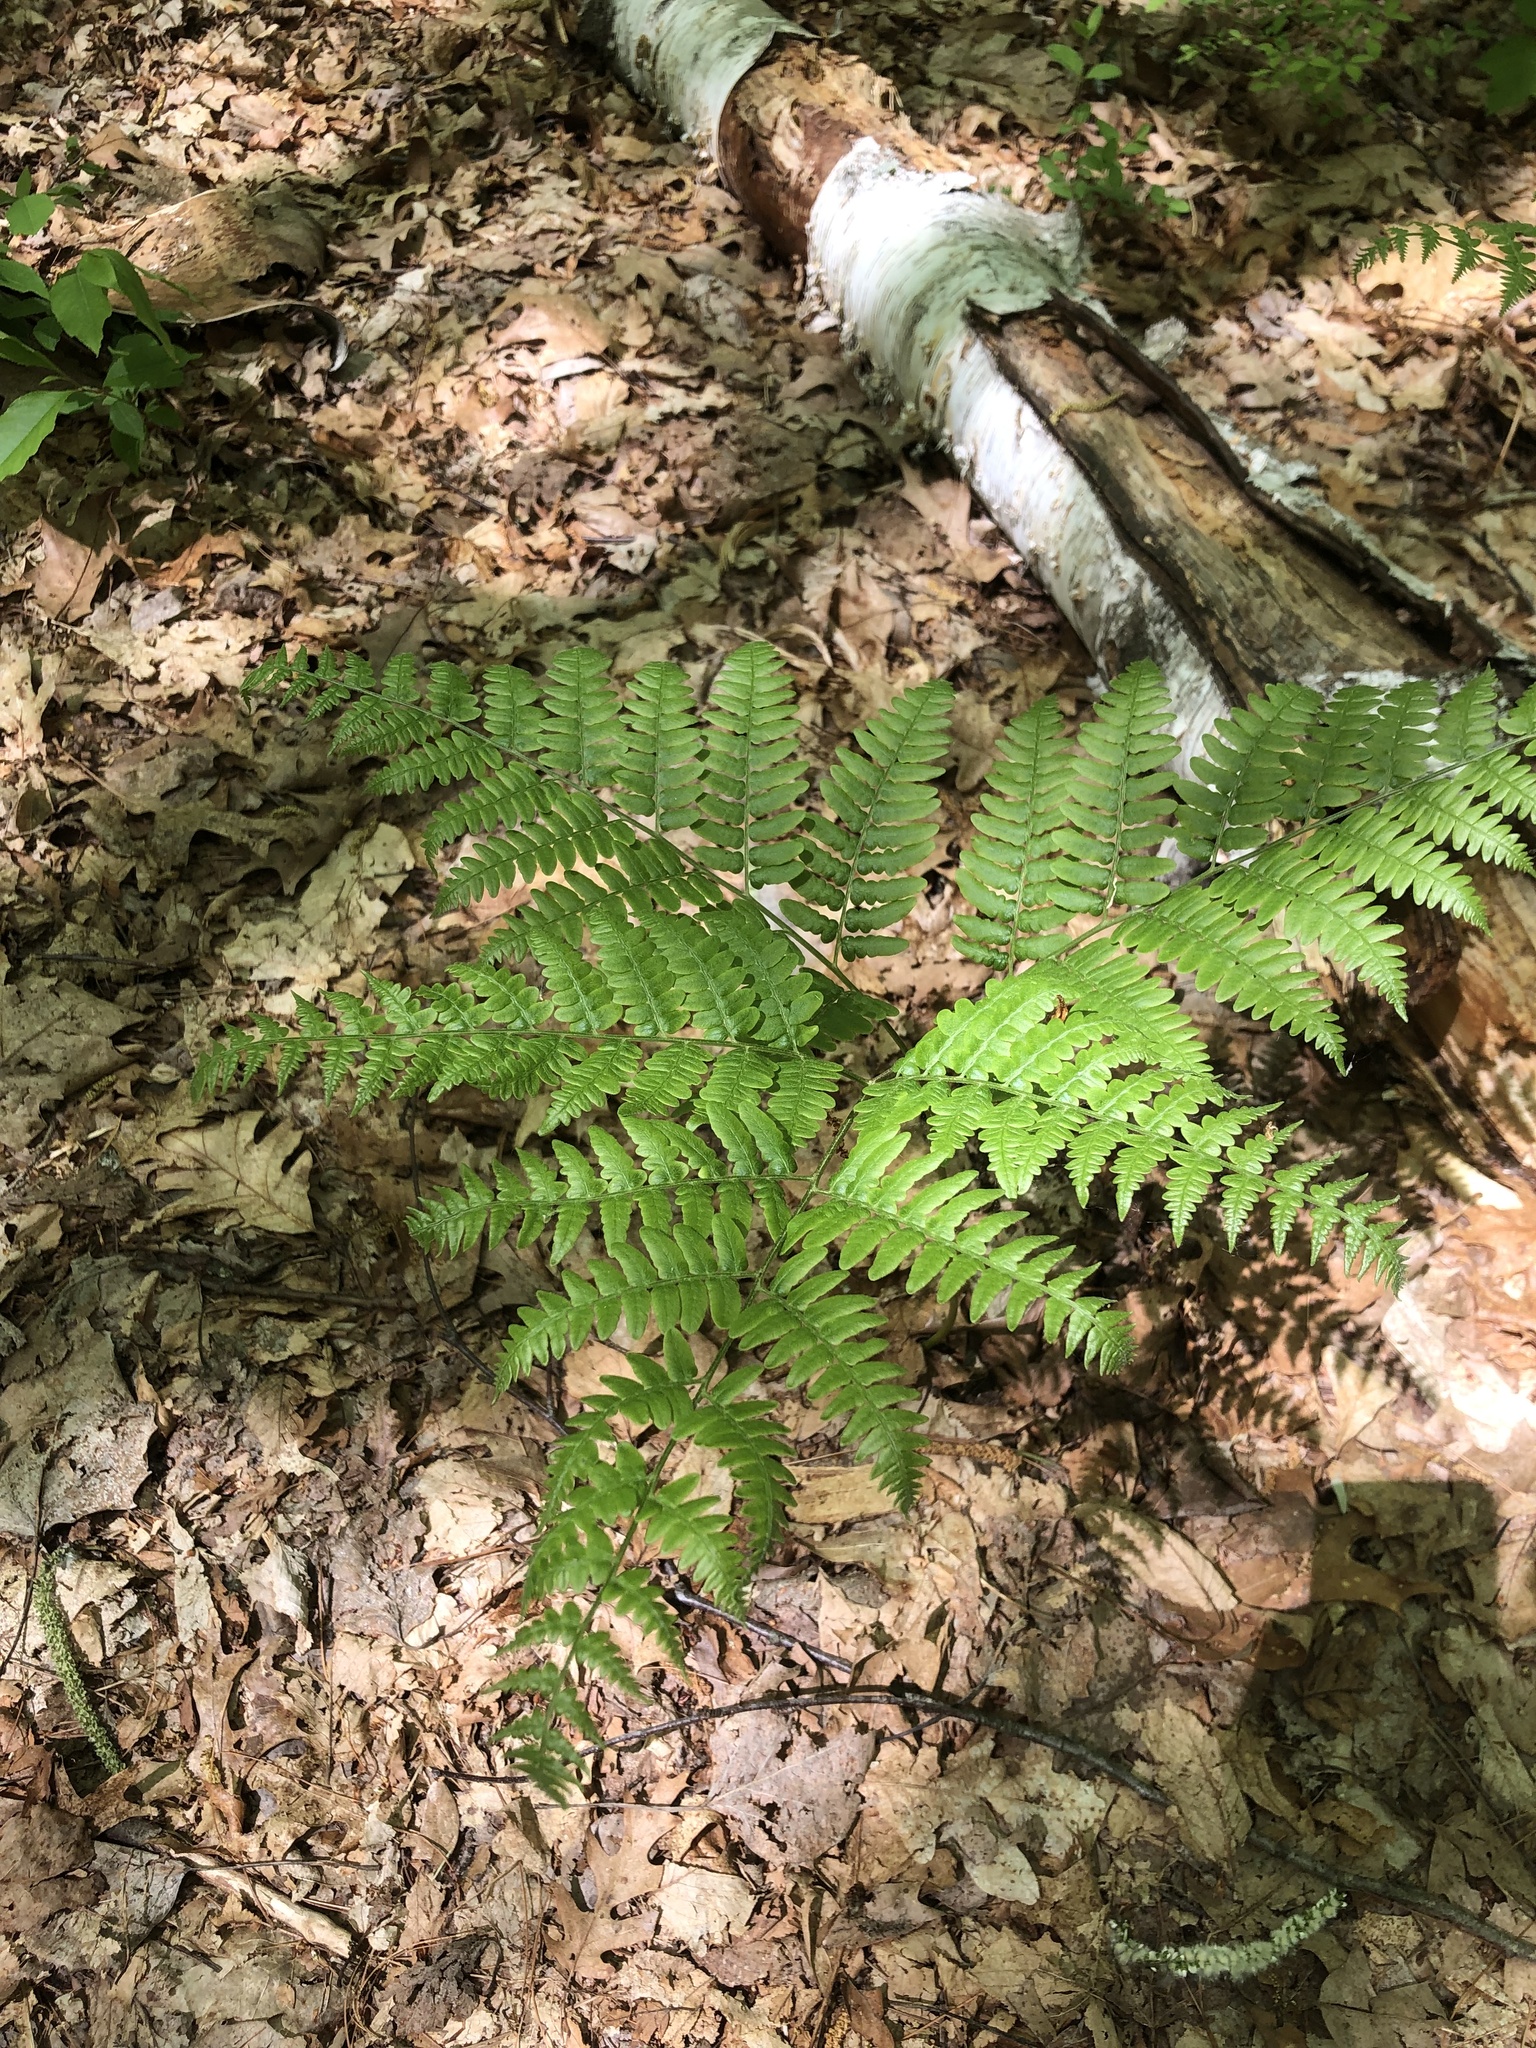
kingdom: Plantae
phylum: Tracheophyta
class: Polypodiopsida
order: Polypodiales
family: Dennstaedtiaceae
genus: Pteridium
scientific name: Pteridium aquilinum
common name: Bracken
